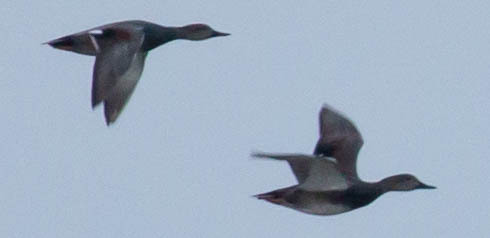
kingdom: Animalia
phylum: Chordata
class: Aves
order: Anseriformes
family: Anatidae
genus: Mareca
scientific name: Mareca strepera
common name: Gadwall
